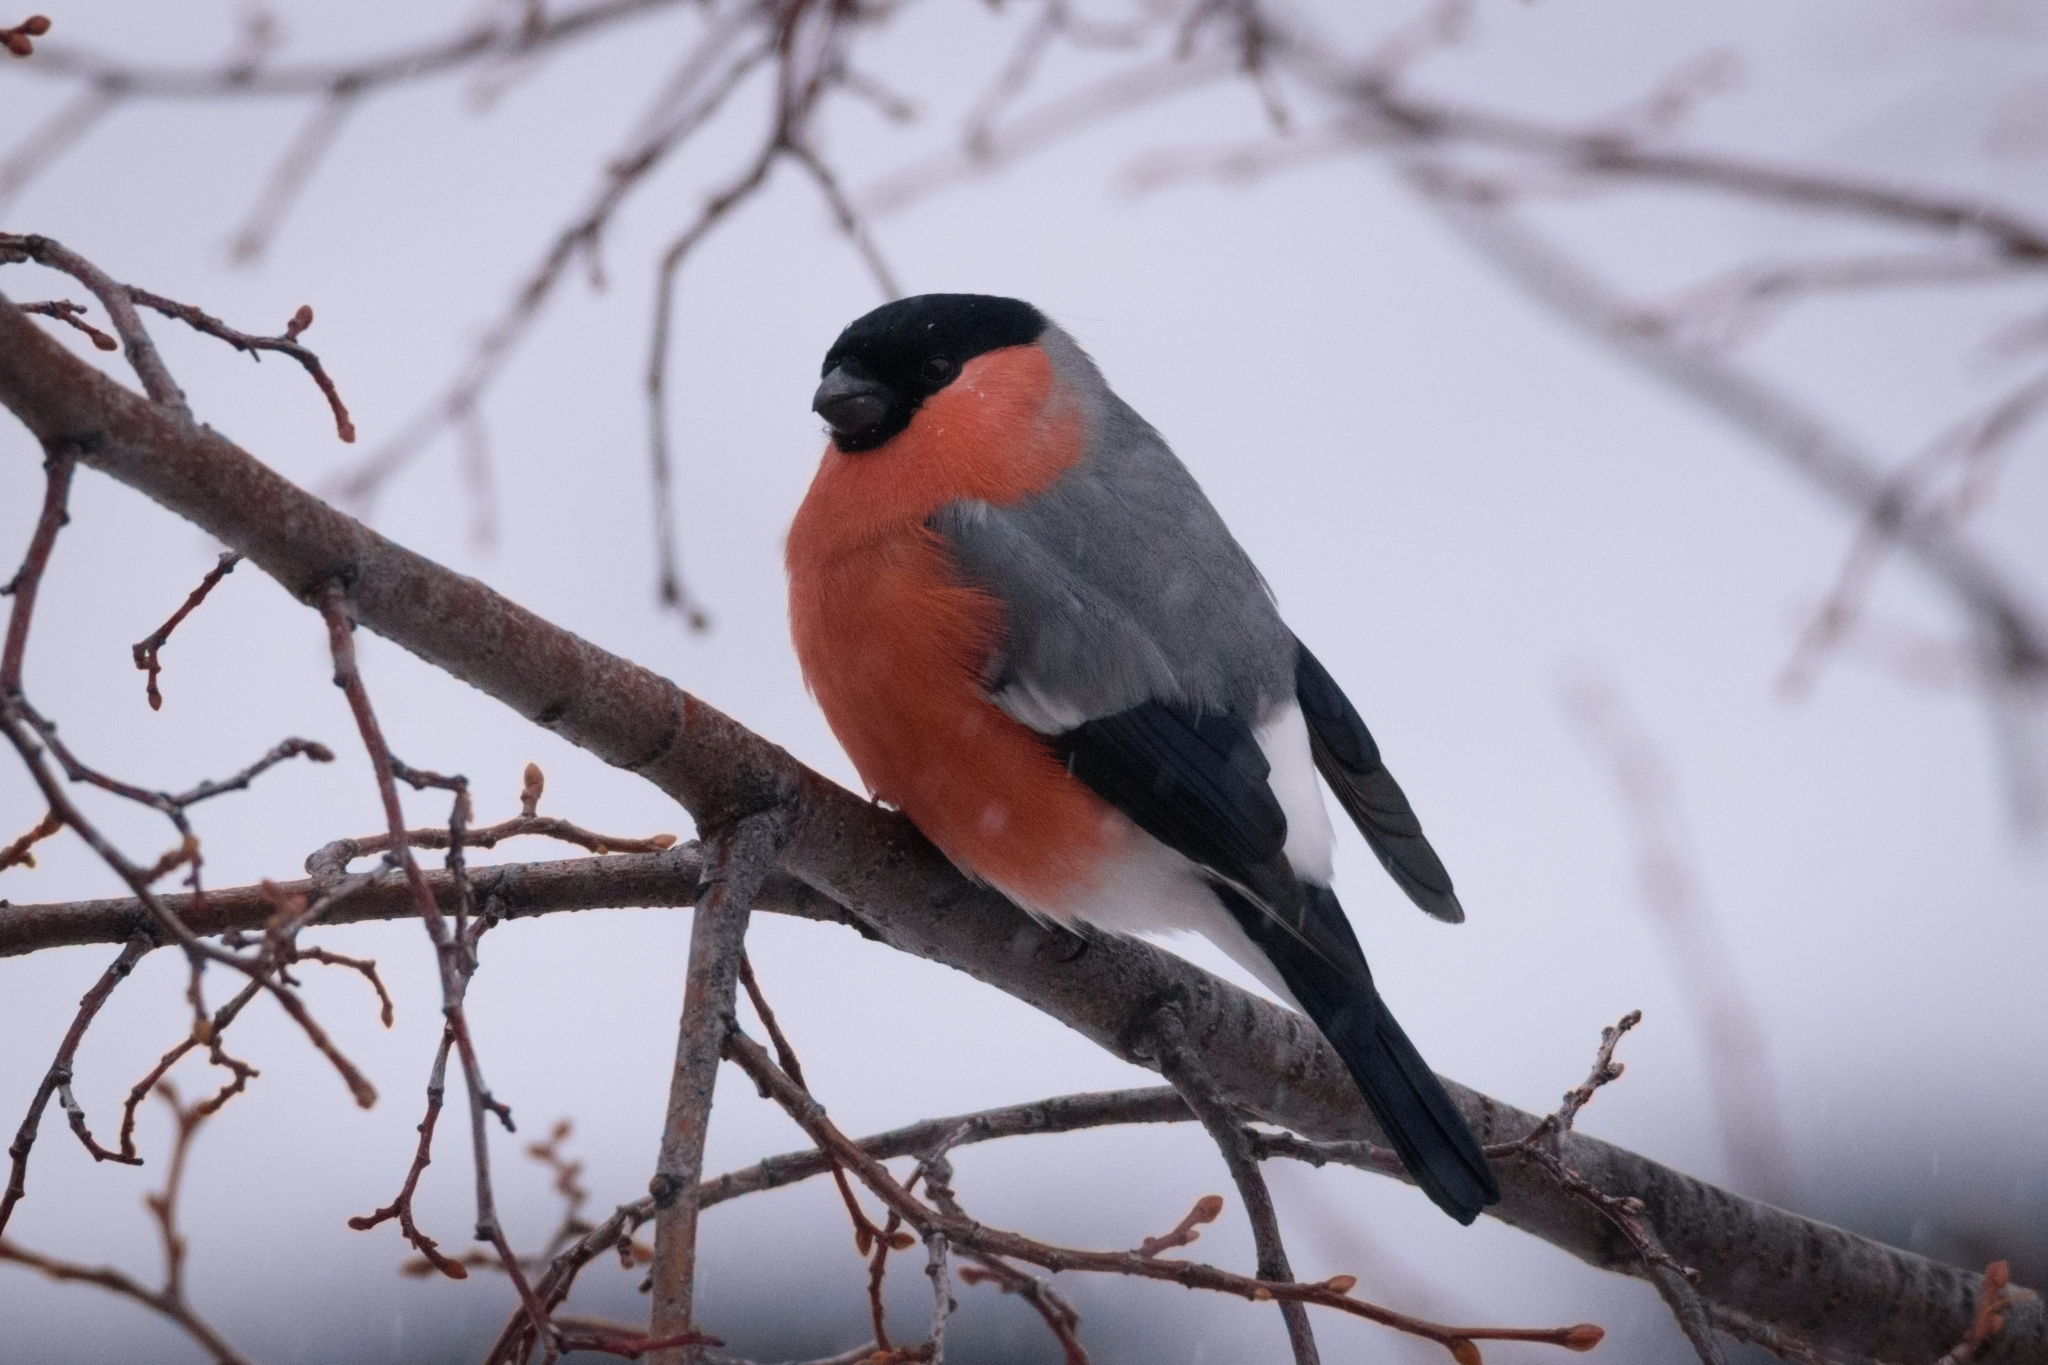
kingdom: Animalia
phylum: Chordata
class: Aves
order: Passeriformes
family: Fringillidae
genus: Pyrrhula
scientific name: Pyrrhula pyrrhula
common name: Eurasian bullfinch
